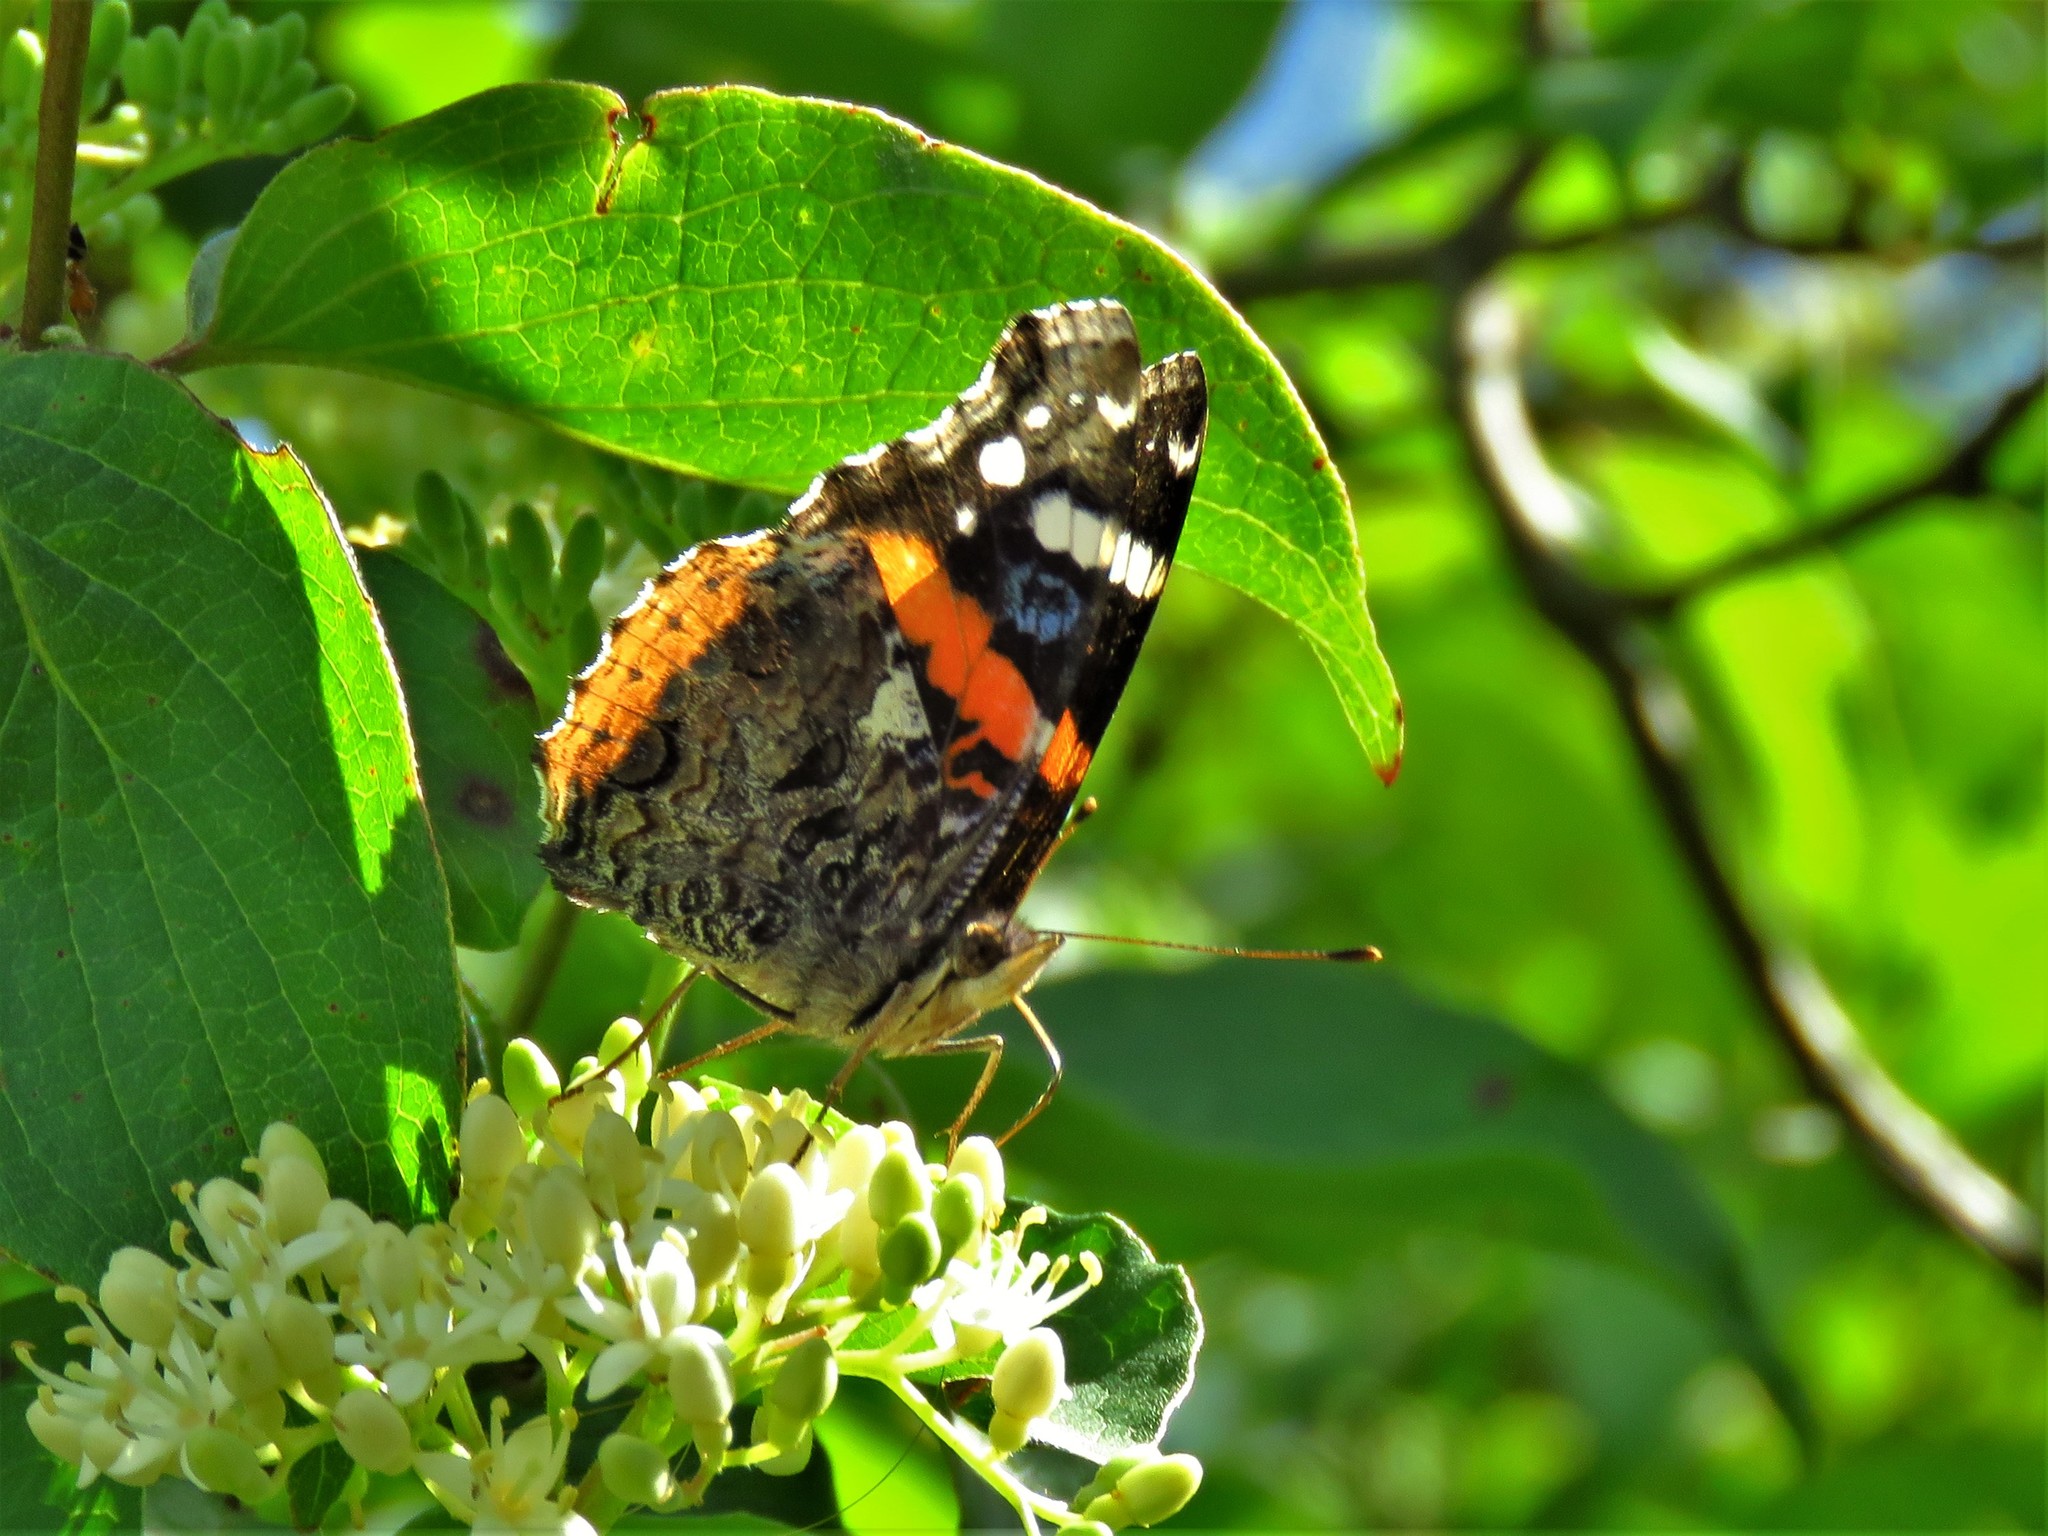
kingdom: Animalia
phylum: Arthropoda
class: Insecta
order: Lepidoptera
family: Nymphalidae
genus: Vanessa
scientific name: Vanessa atalanta
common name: Red admiral
